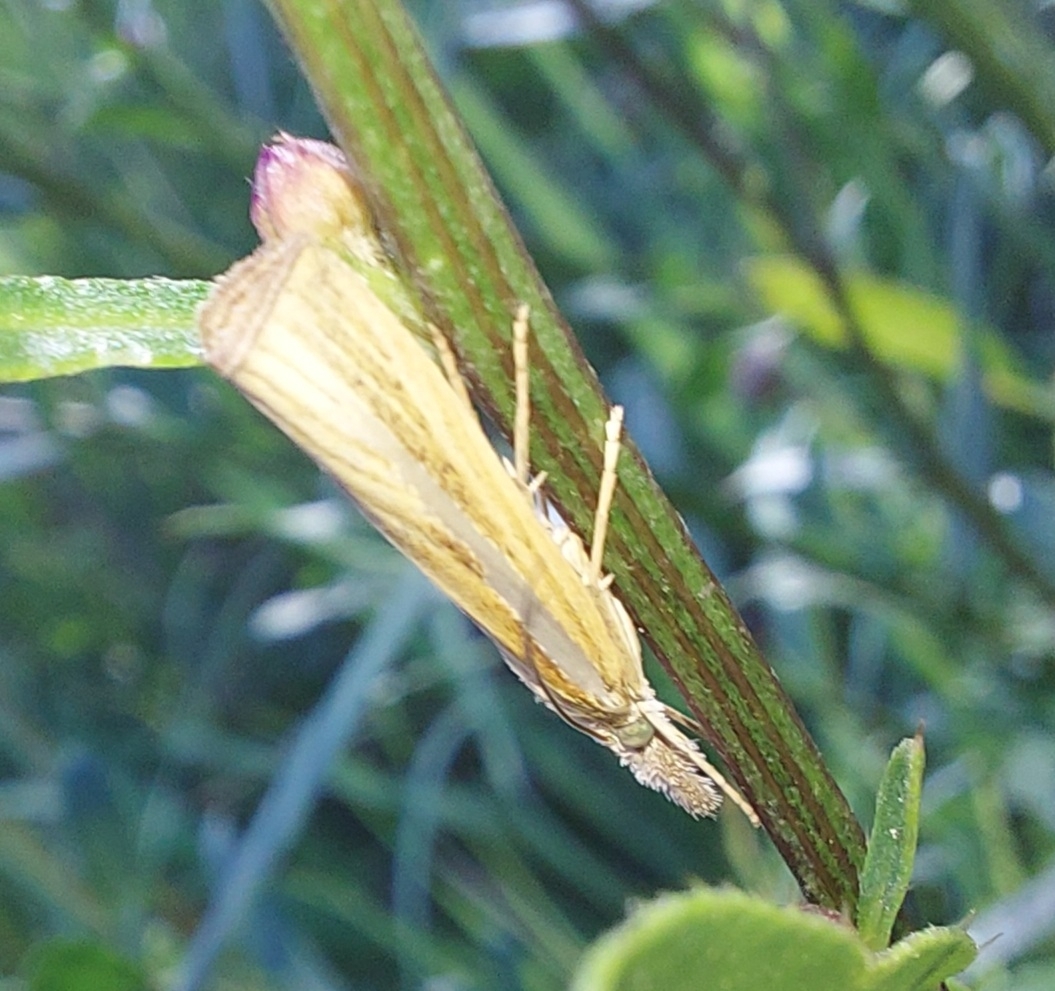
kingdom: Animalia
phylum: Arthropoda
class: Insecta
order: Lepidoptera
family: Crambidae
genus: Agriphila
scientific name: Agriphila tristellus
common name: Common grass-veneer
